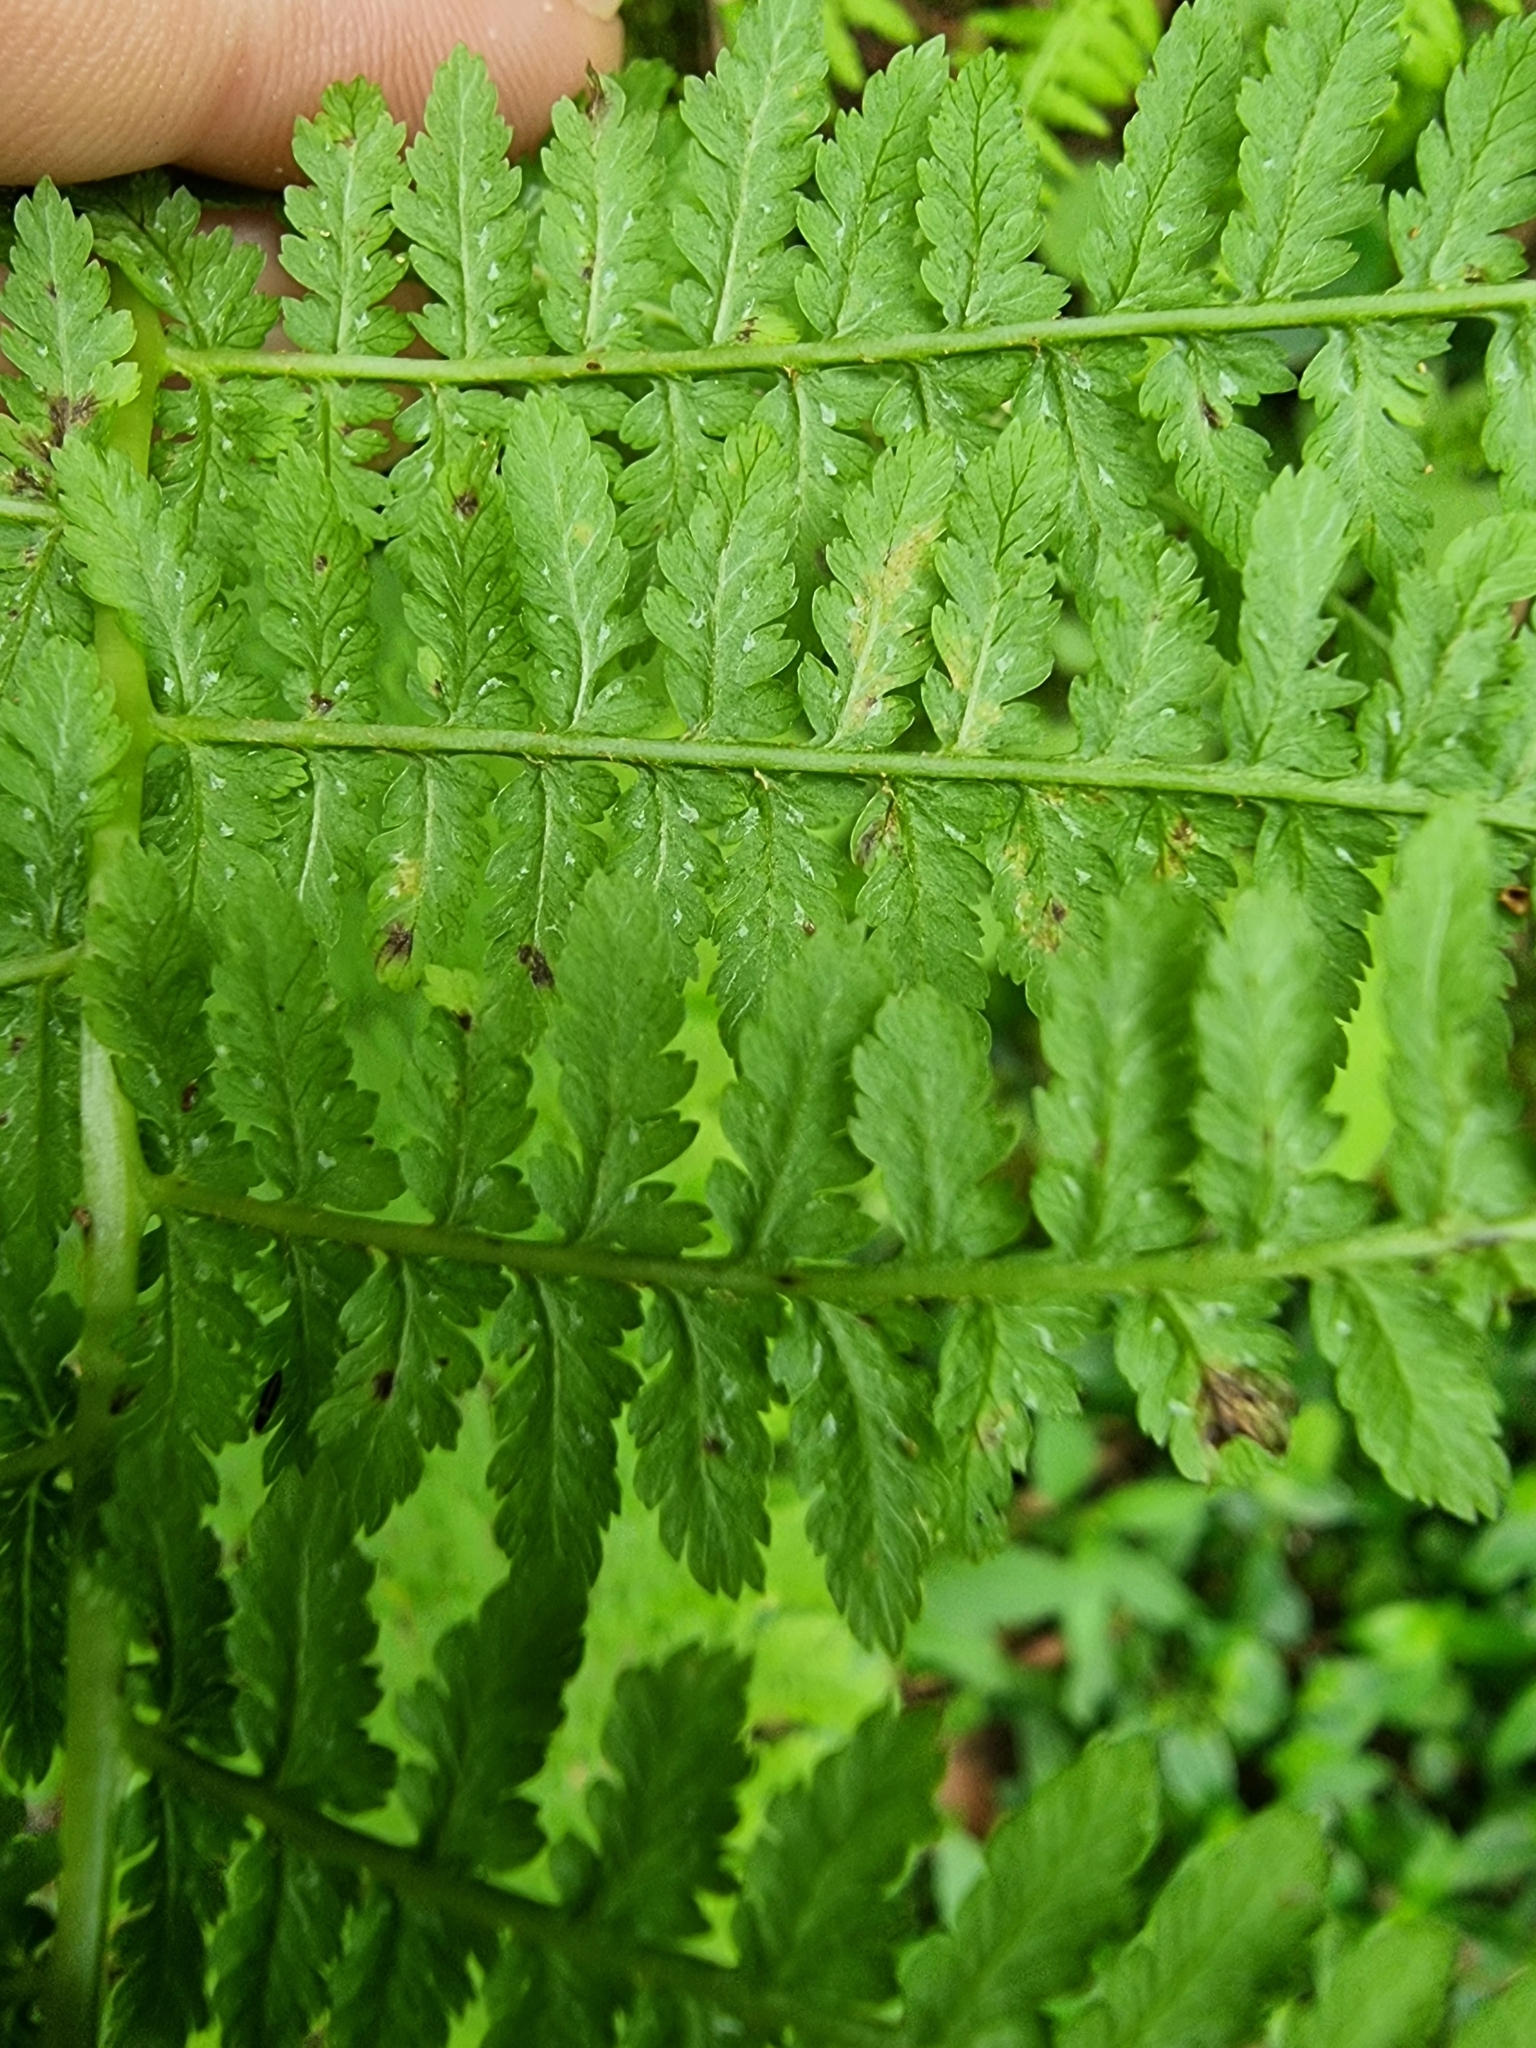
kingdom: Plantae
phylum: Tracheophyta
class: Polypodiopsida
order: Polypodiales
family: Athyriaceae
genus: Athyrium
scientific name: Athyrium filix-femina
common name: Lady fern
